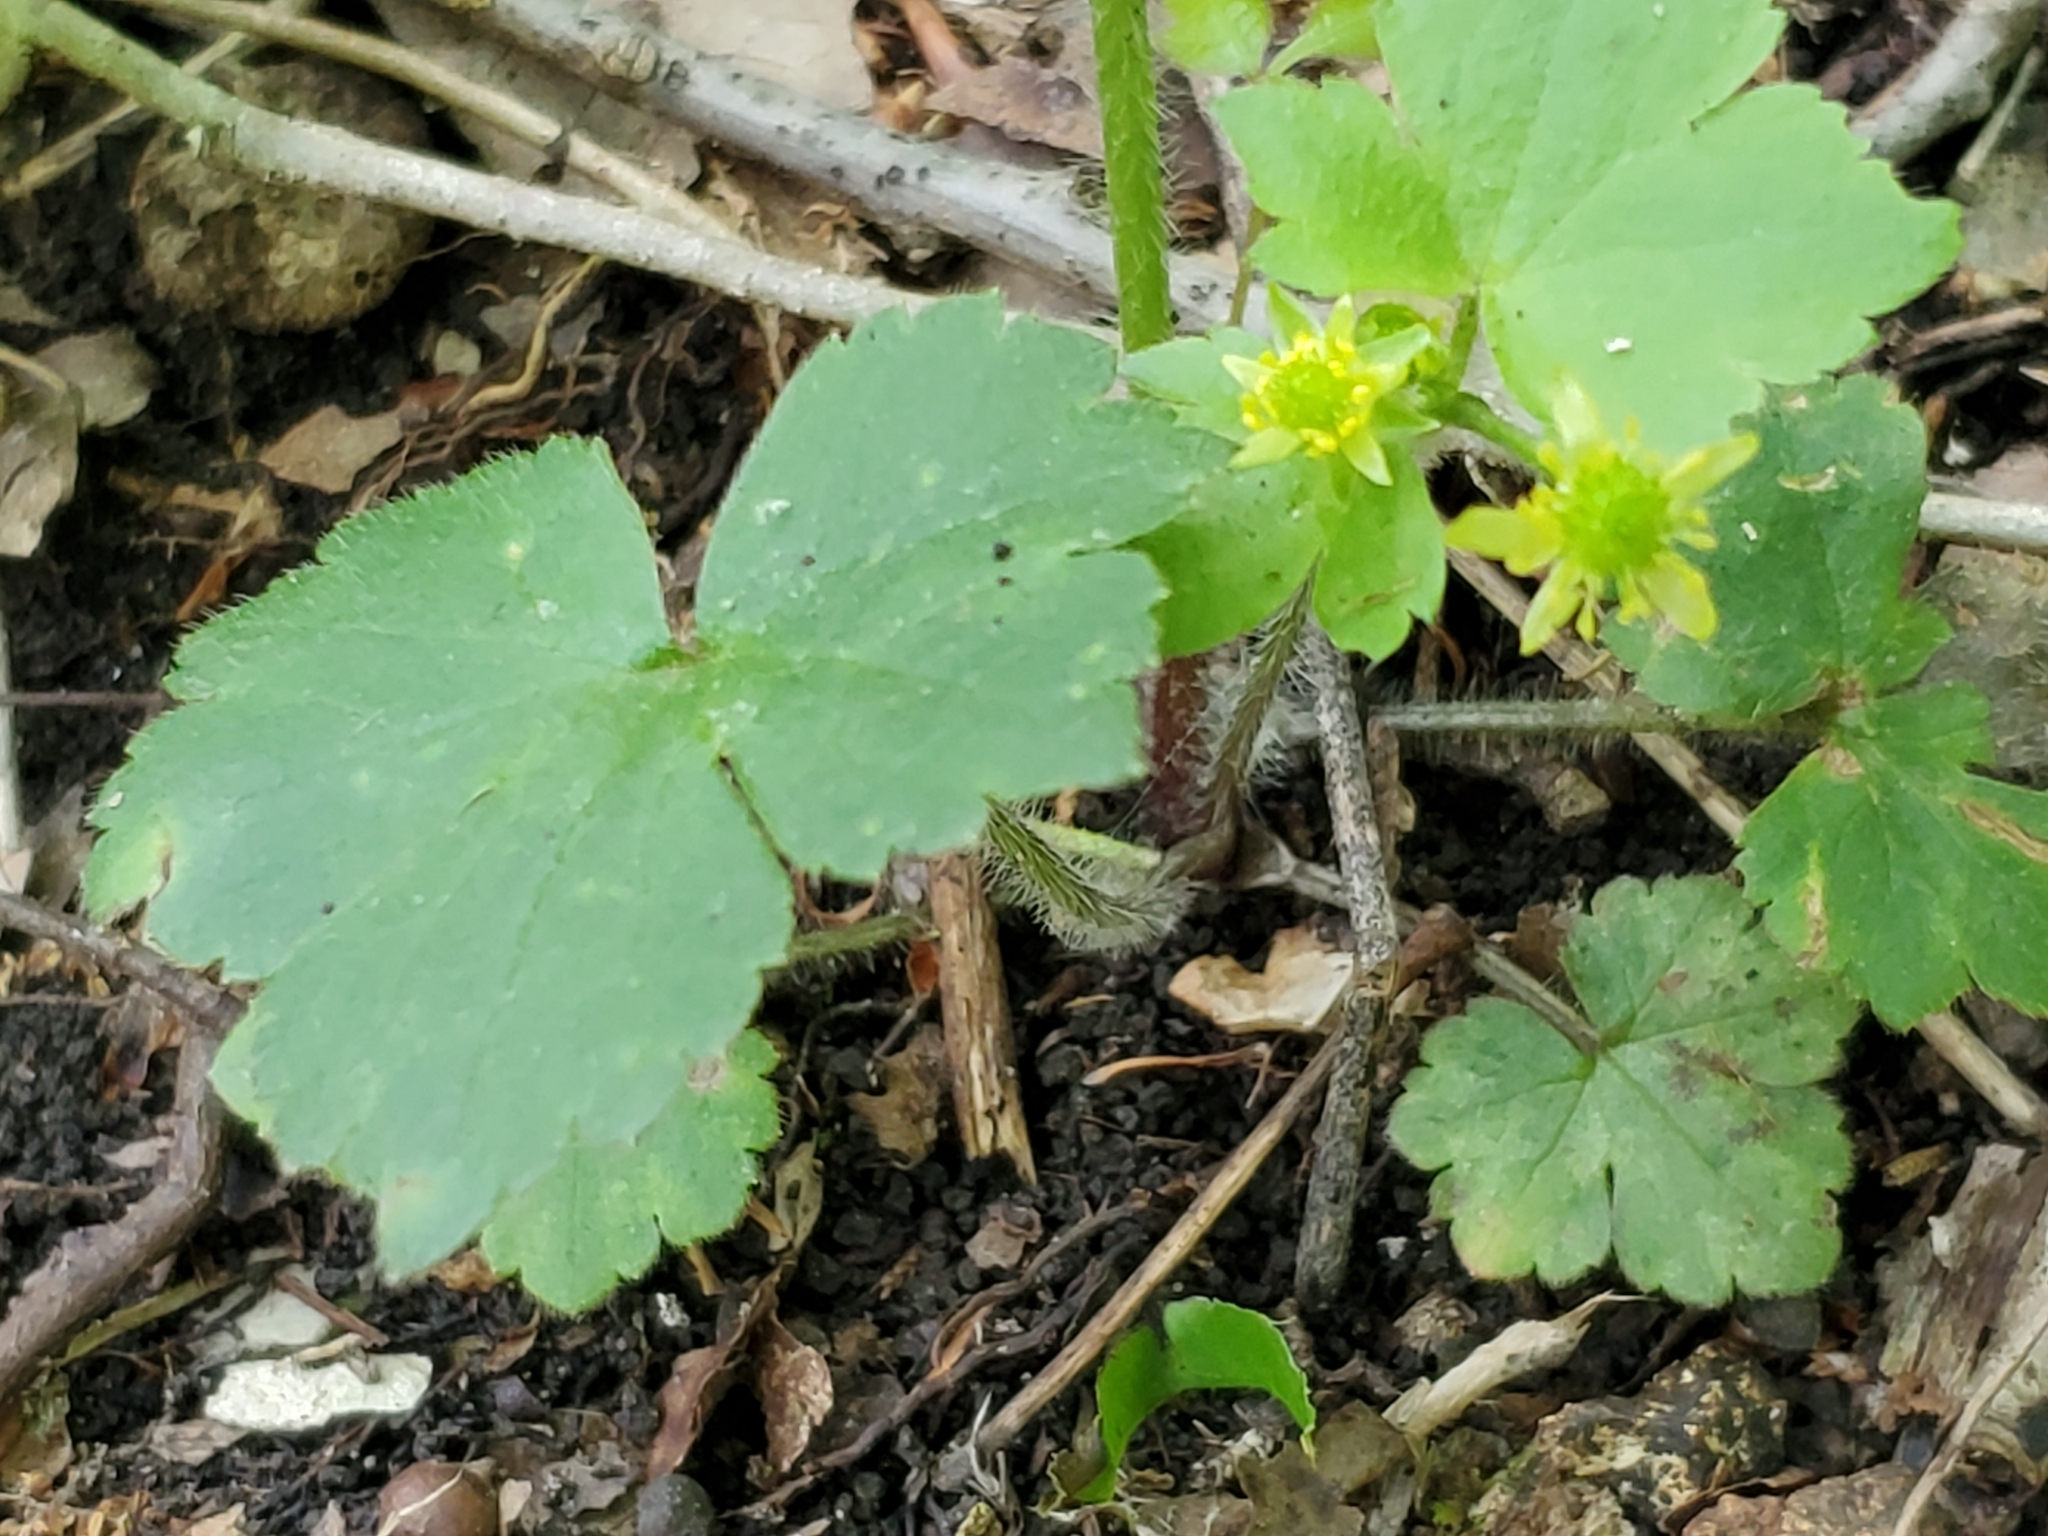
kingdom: Plantae
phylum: Tracheophyta
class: Magnoliopsida
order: Ranunculales
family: Ranunculaceae
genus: Ranunculus
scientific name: Ranunculus recurvatus
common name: Blisterwort
